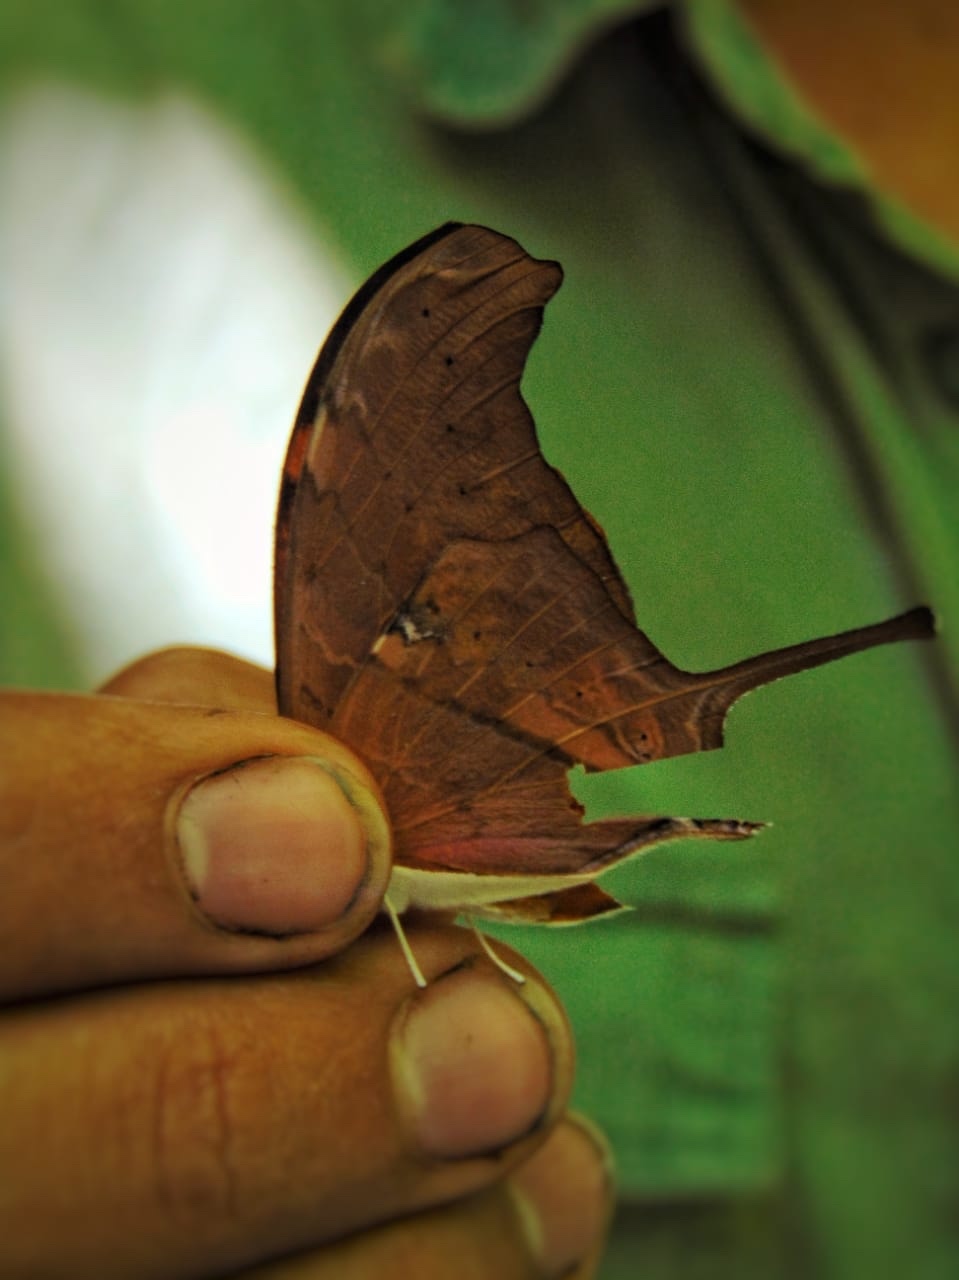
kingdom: Animalia
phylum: Arthropoda
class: Insecta
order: Lepidoptera
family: Nymphalidae
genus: Marpesia
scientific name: Marpesia petreus
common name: Red dagger wing
